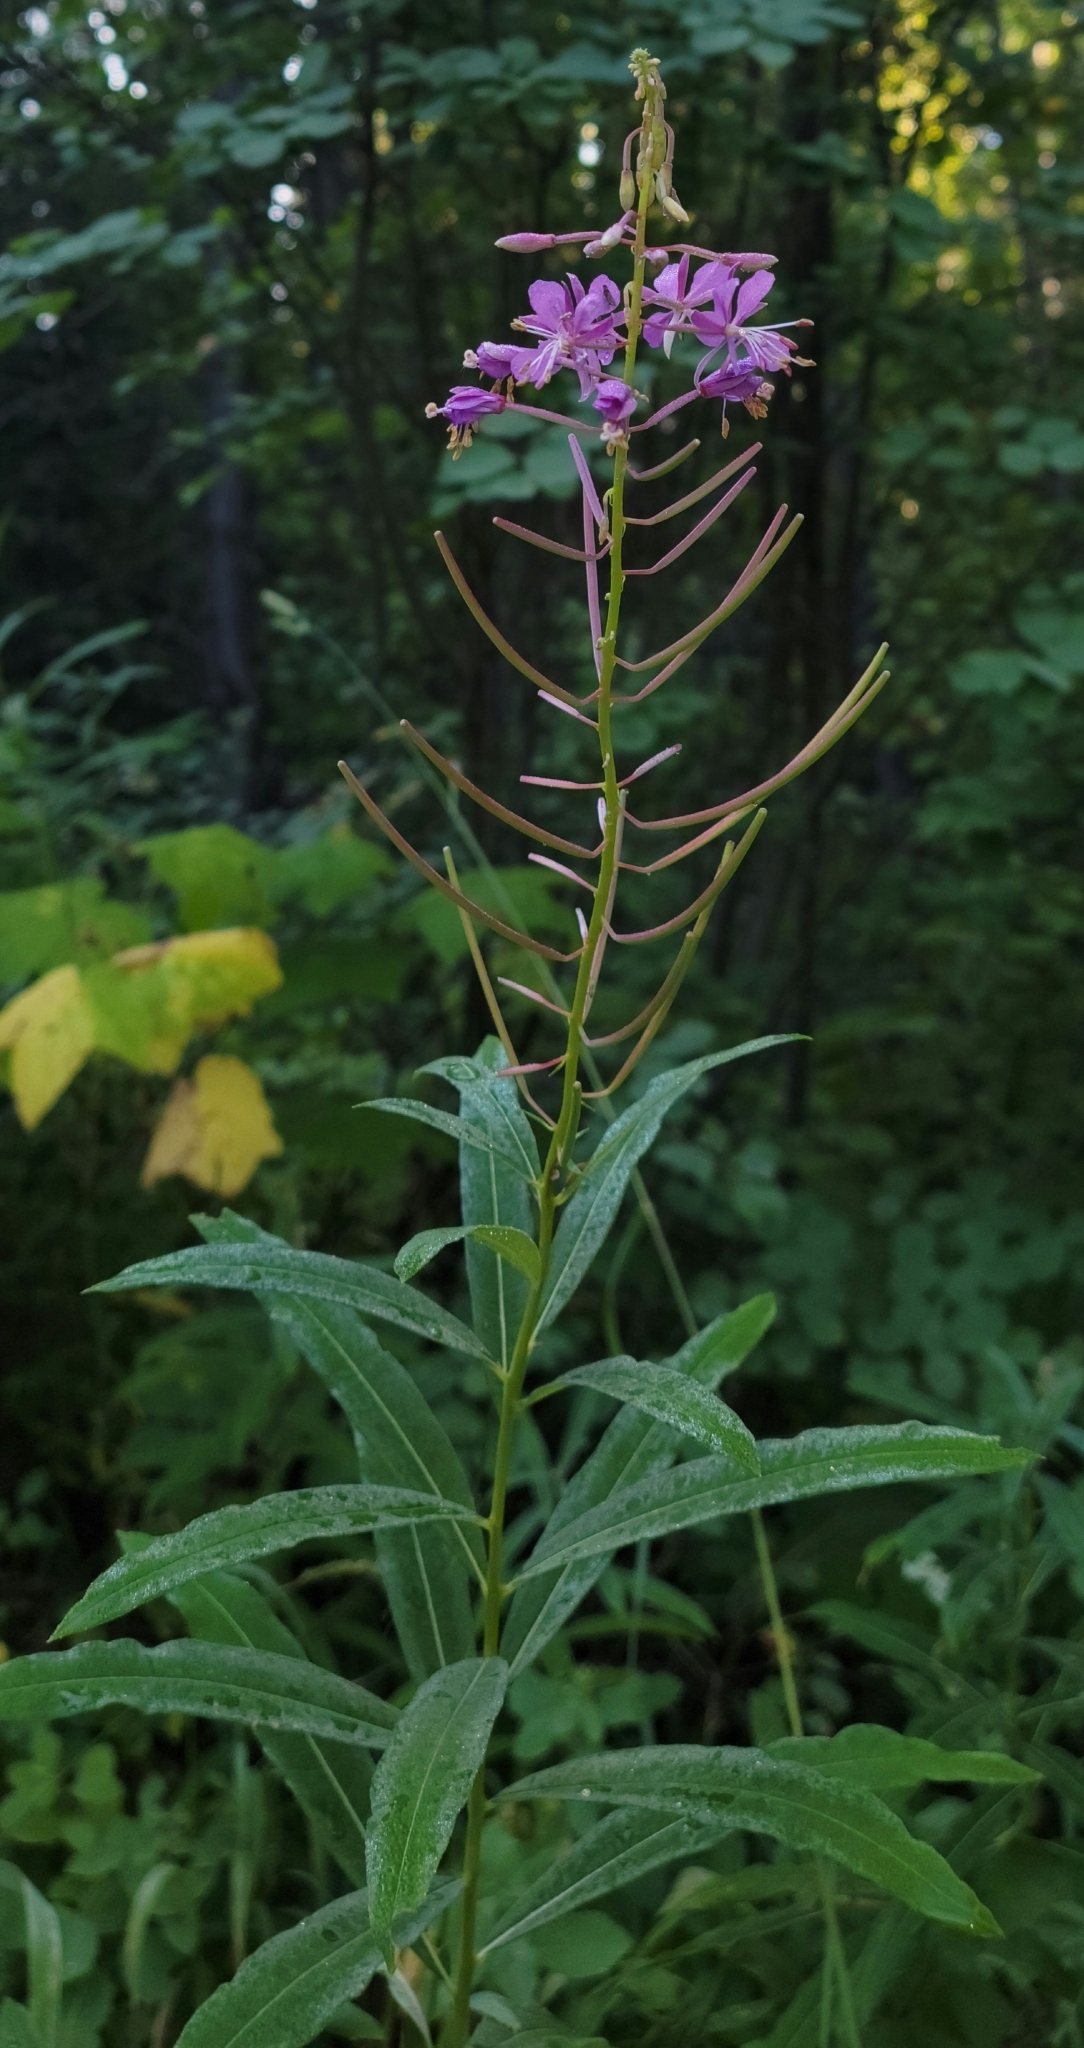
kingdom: Plantae
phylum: Tracheophyta
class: Magnoliopsida
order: Myrtales
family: Onagraceae
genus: Chamaenerion
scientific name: Chamaenerion angustifolium
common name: Fireweed
